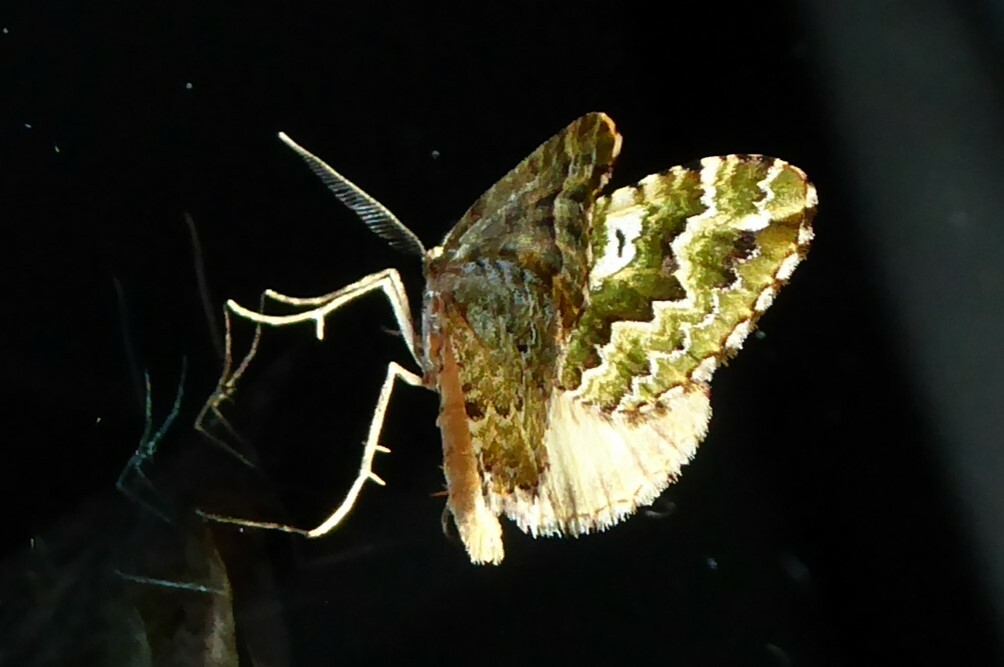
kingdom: Animalia
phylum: Arthropoda
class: Insecta
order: Lepidoptera
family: Geometridae
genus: Asaphodes
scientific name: Asaphodes beata
